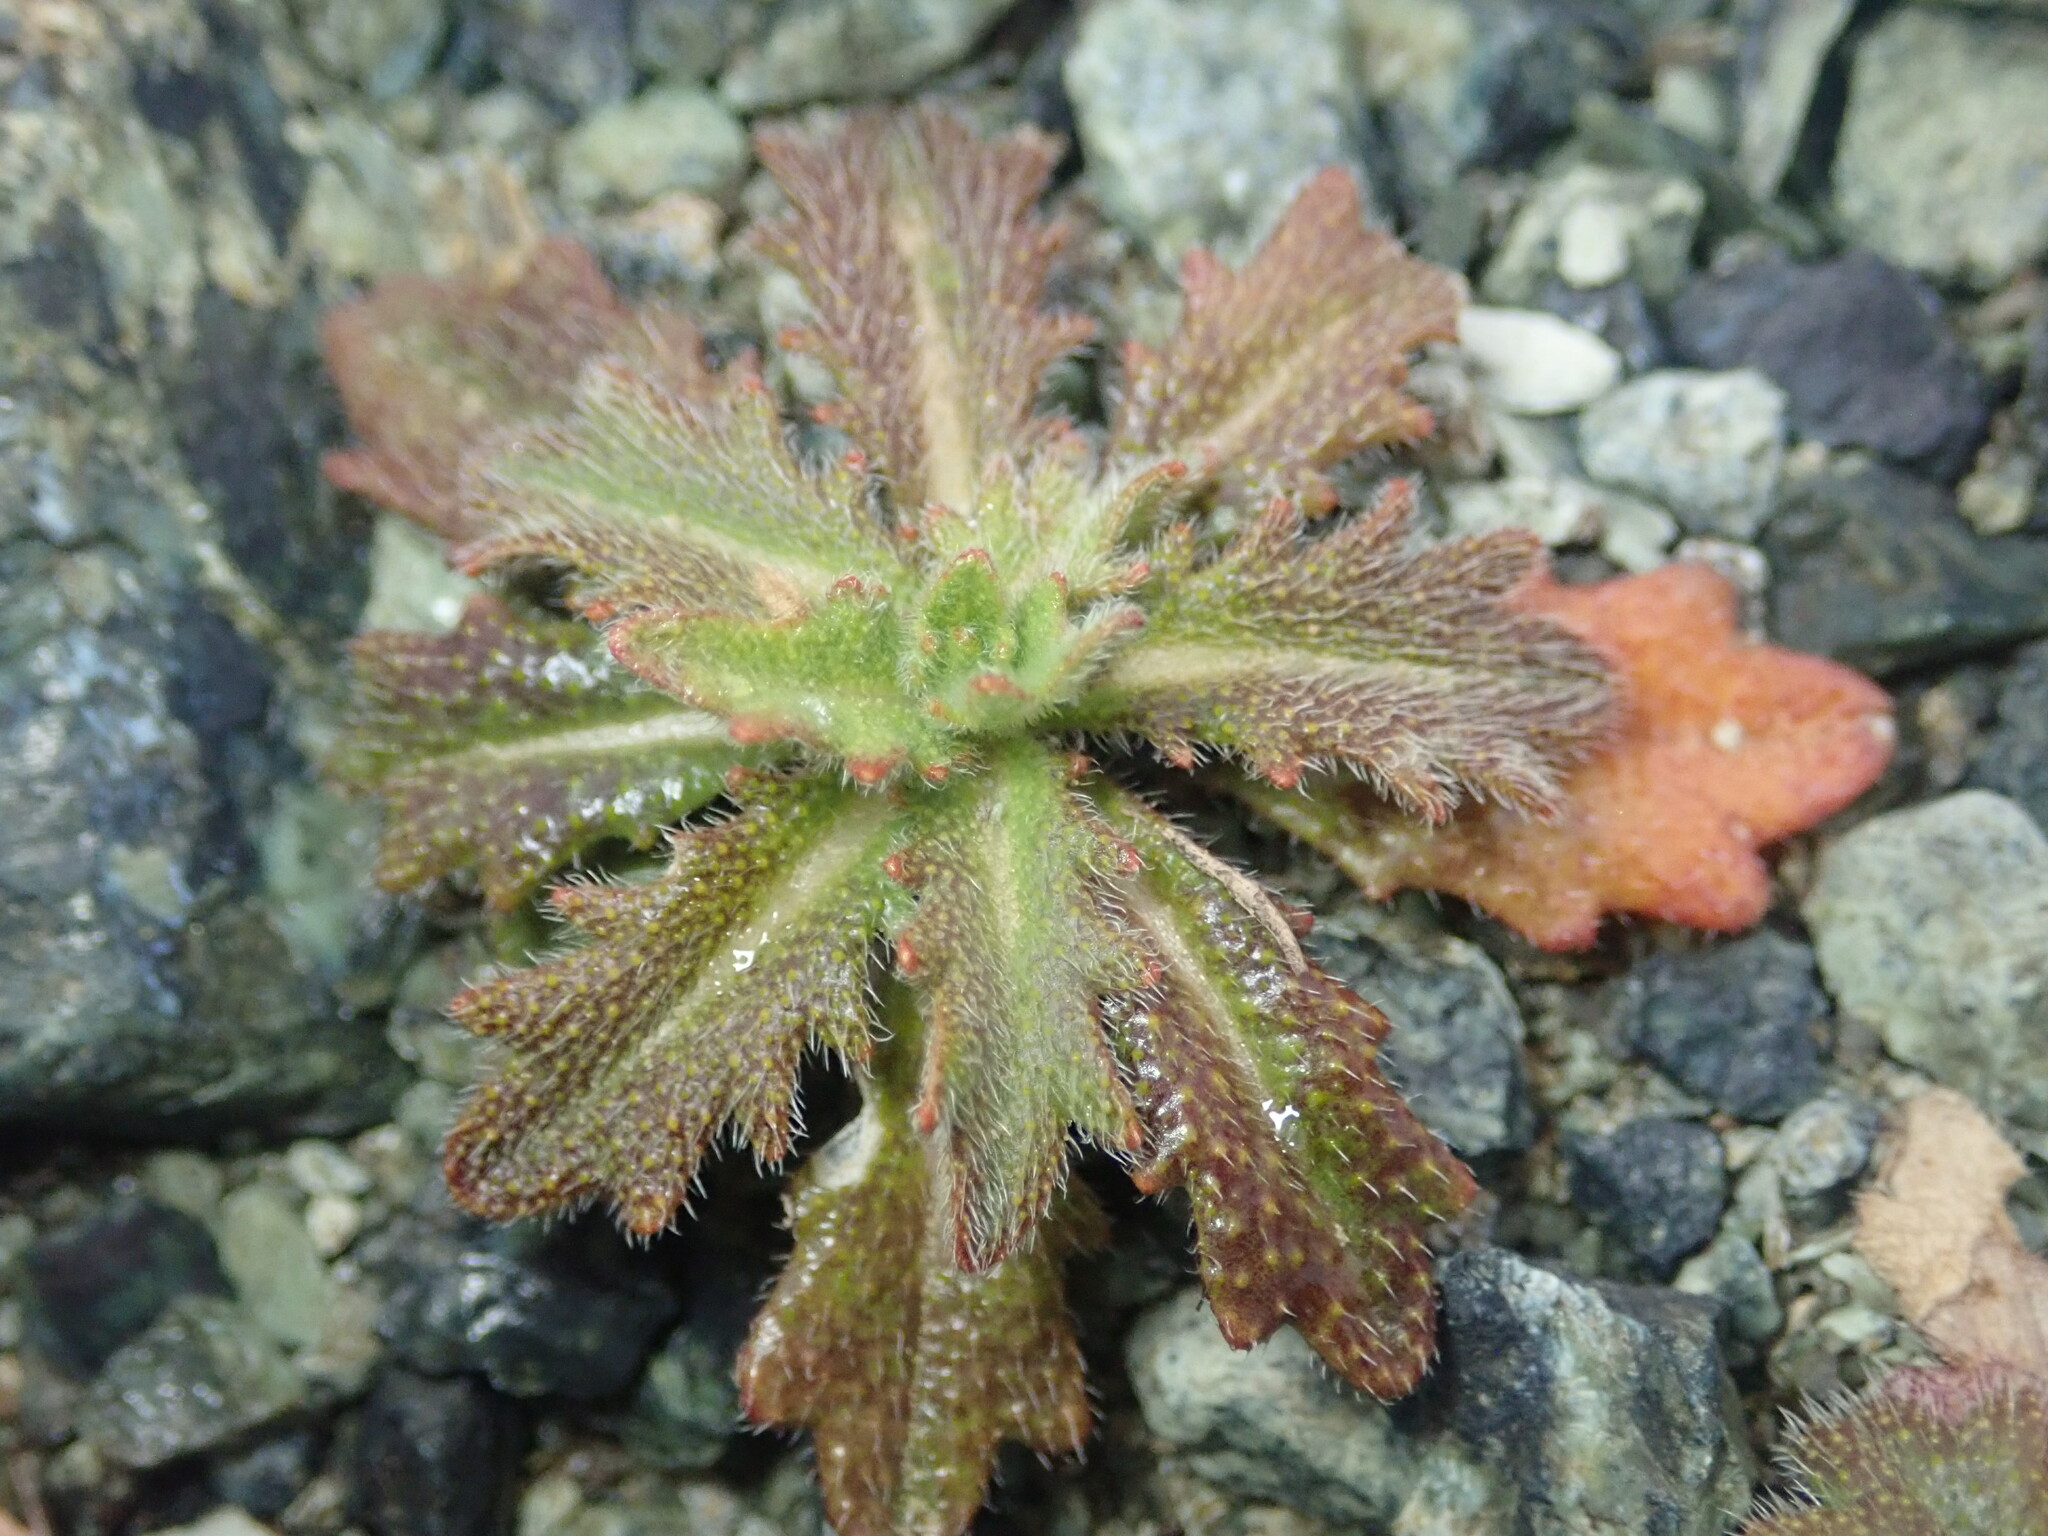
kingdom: Plantae
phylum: Tracheophyta
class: Magnoliopsida
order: Brassicales
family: Brassicaceae
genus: Streptanthus
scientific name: Streptanthus glandulosus
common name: Jewel-flower
